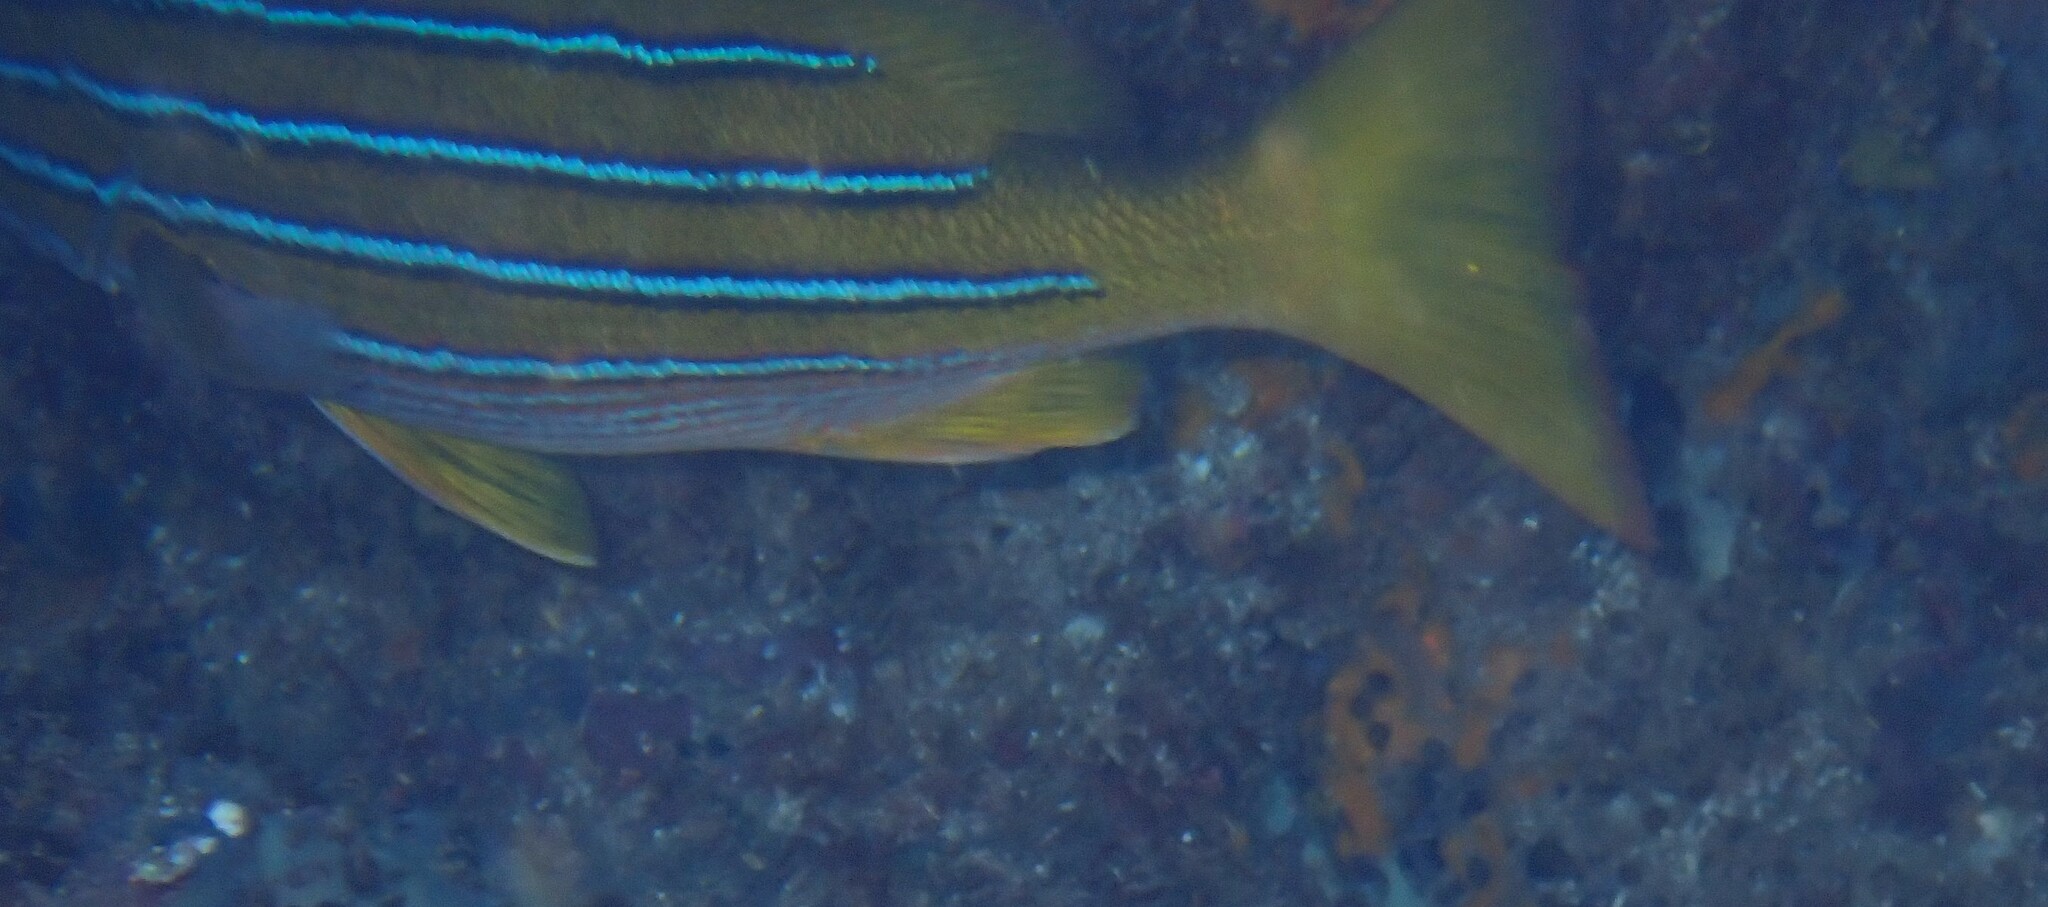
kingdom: Animalia
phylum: Chordata
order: Perciformes
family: Lutjanidae
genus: Lutjanus
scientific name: Lutjanus viridis
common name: Blue and gold snapper
